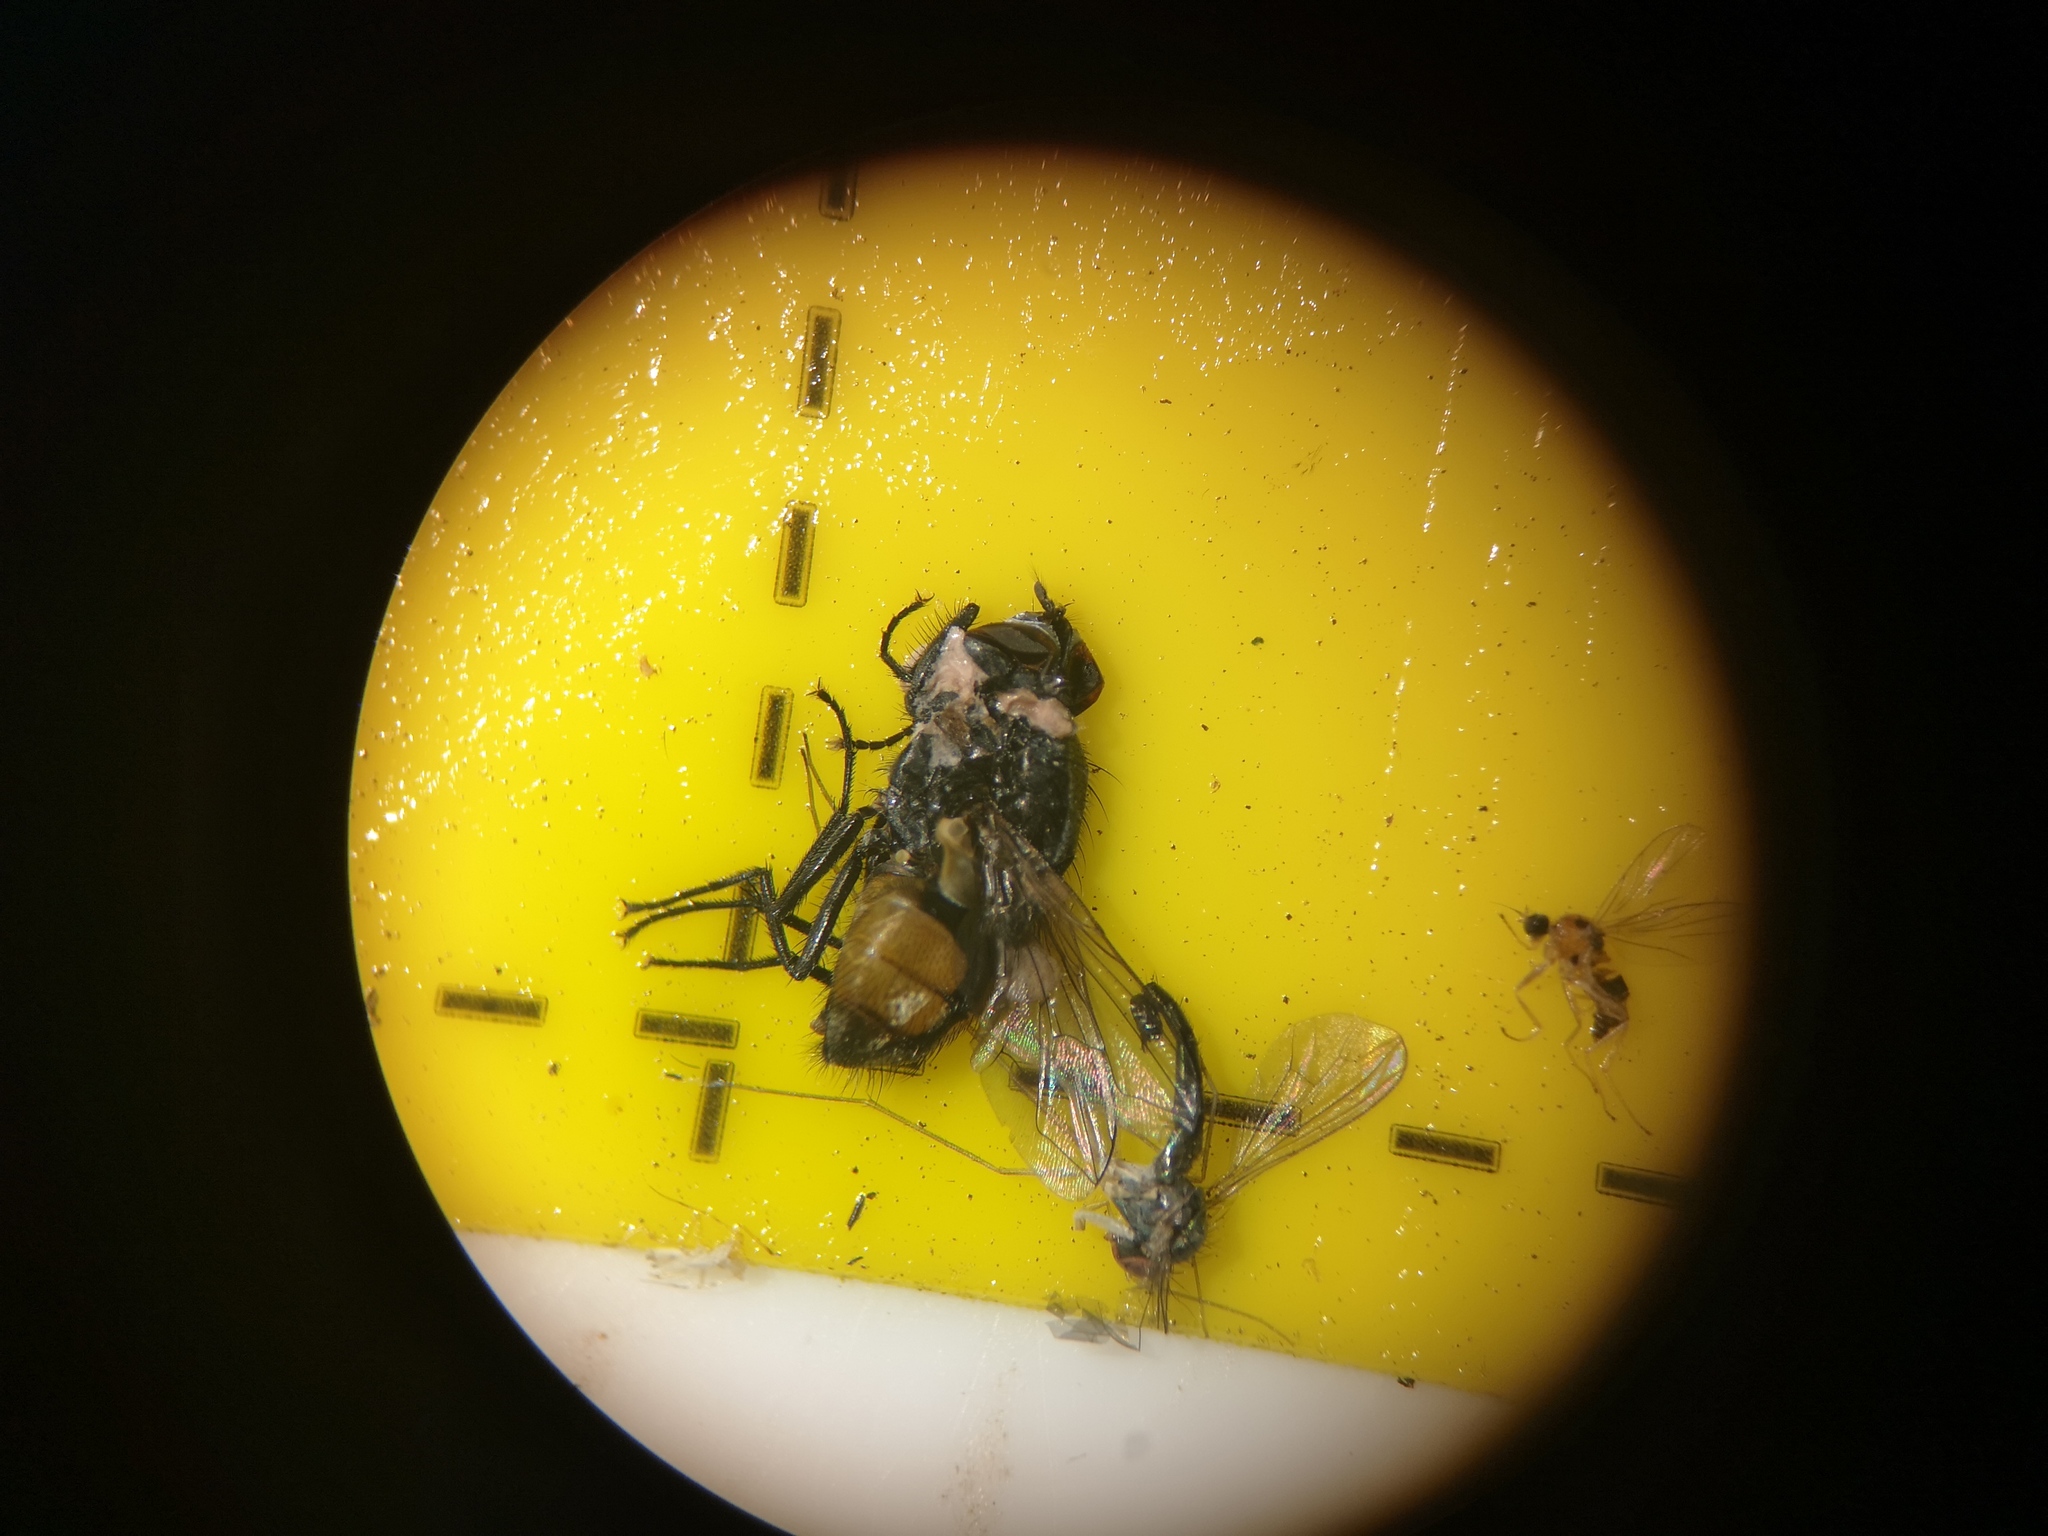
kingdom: Animalia
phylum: Arthropoda
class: Insecta
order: Diptera
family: Muscidae
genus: Musca
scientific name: Musca autumnalis
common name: Face fly
